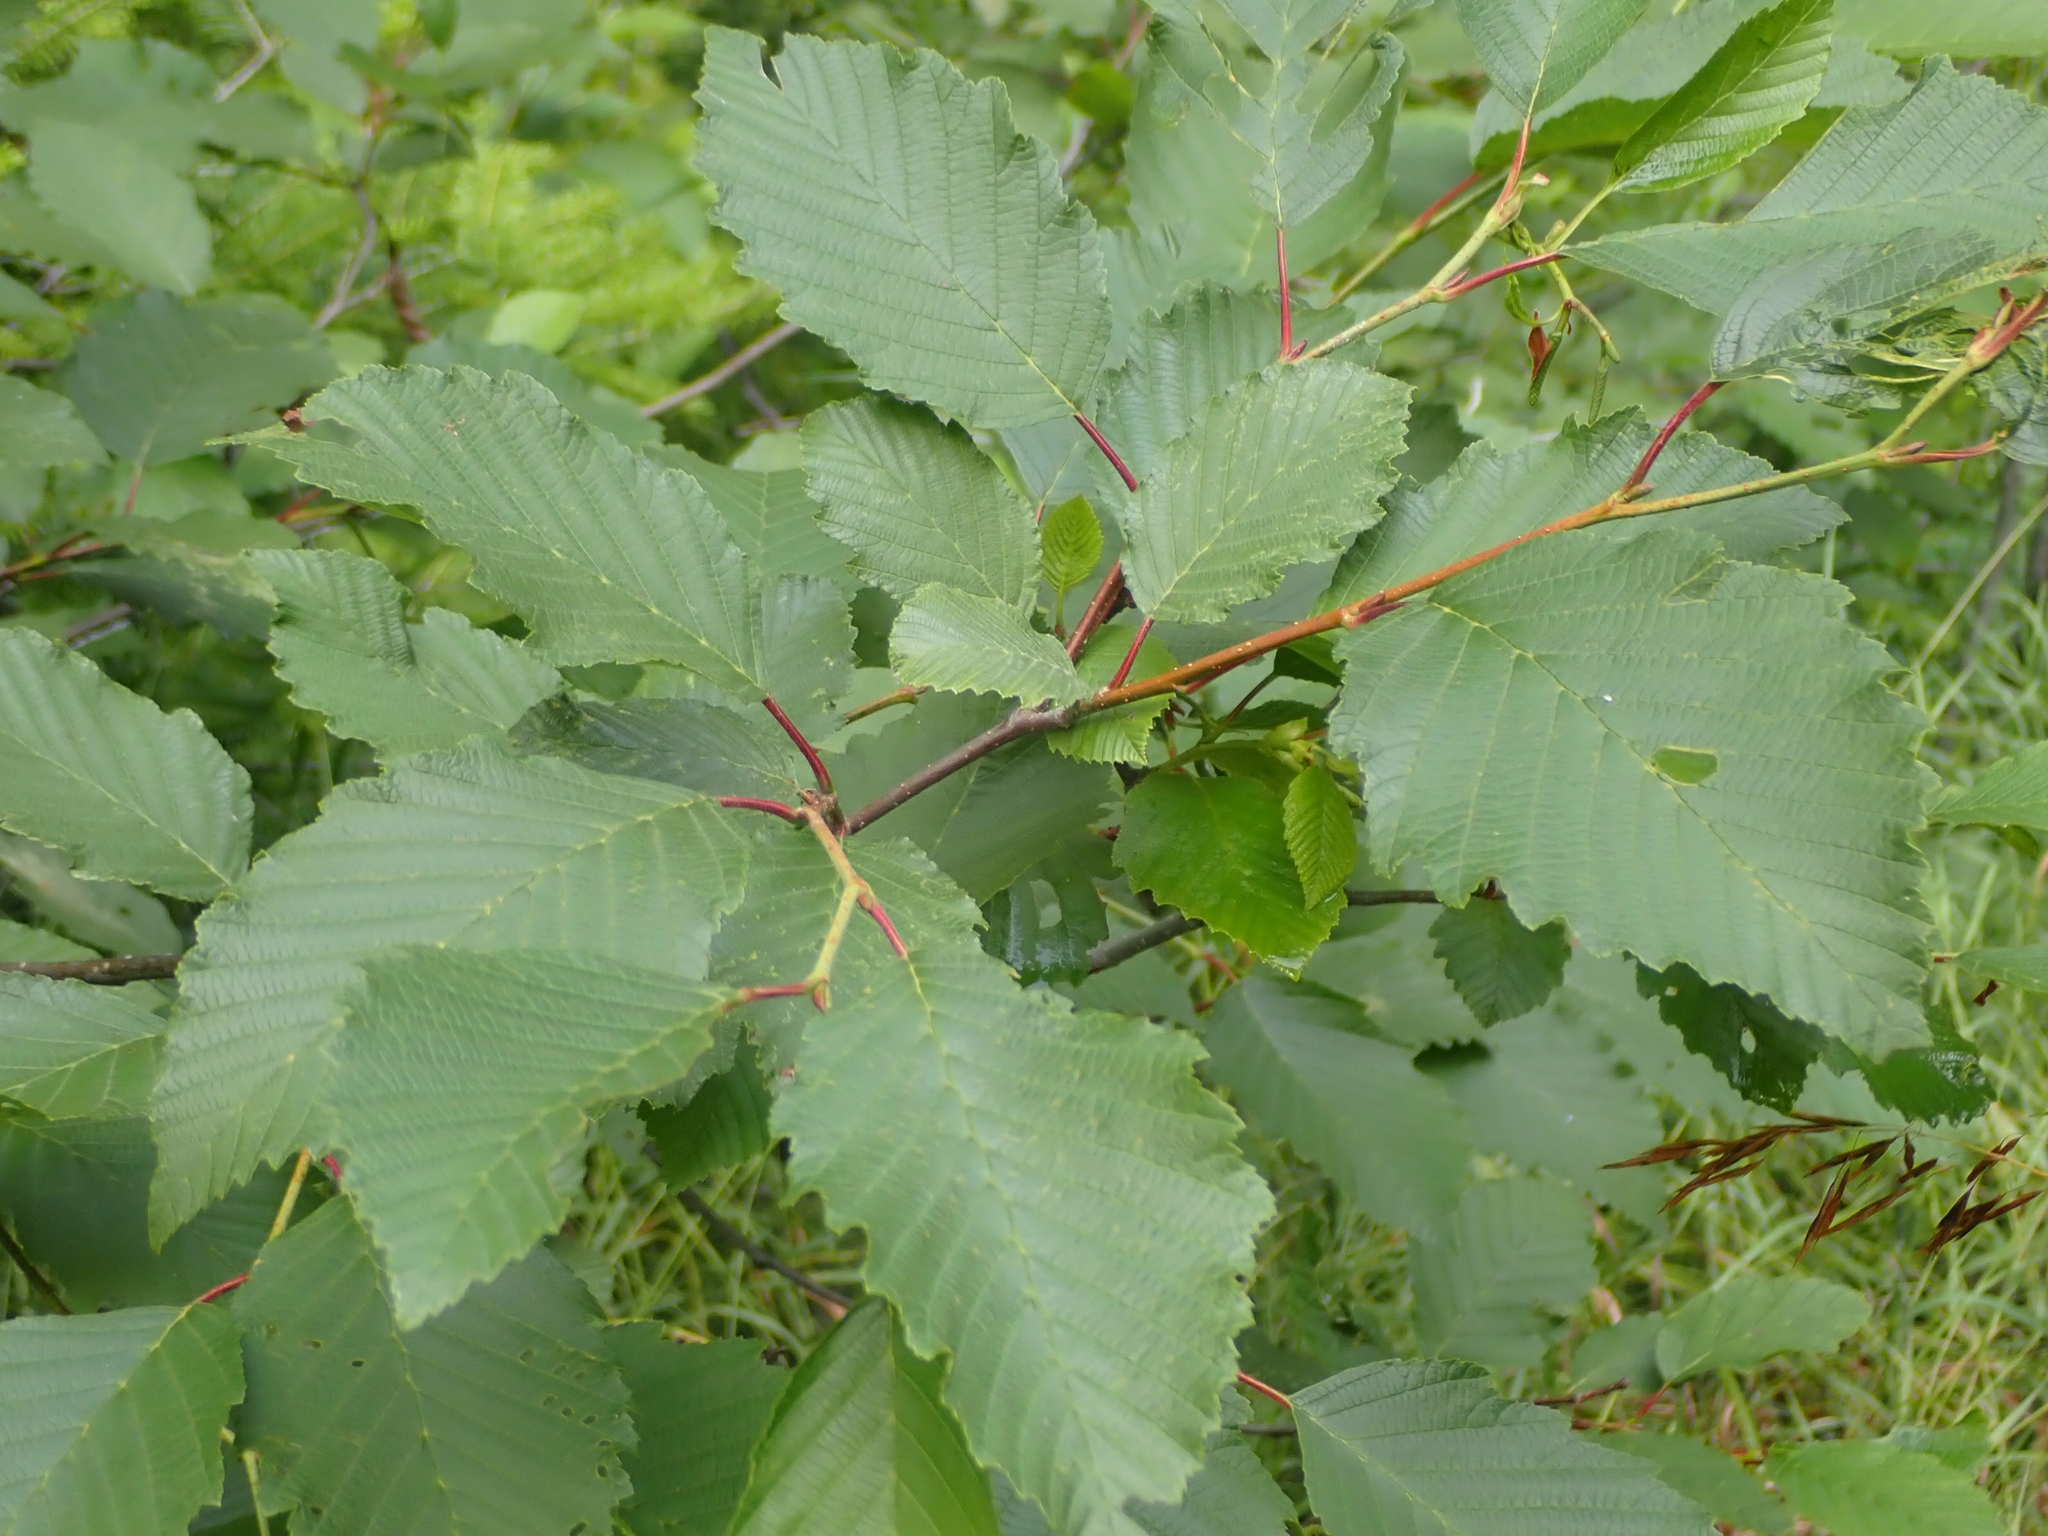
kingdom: Plantae
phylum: Tracheophyta
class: Magnoliopsida
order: Fagales
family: Betulaceae
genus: Alnus
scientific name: Alnus incana
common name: Grey alder
